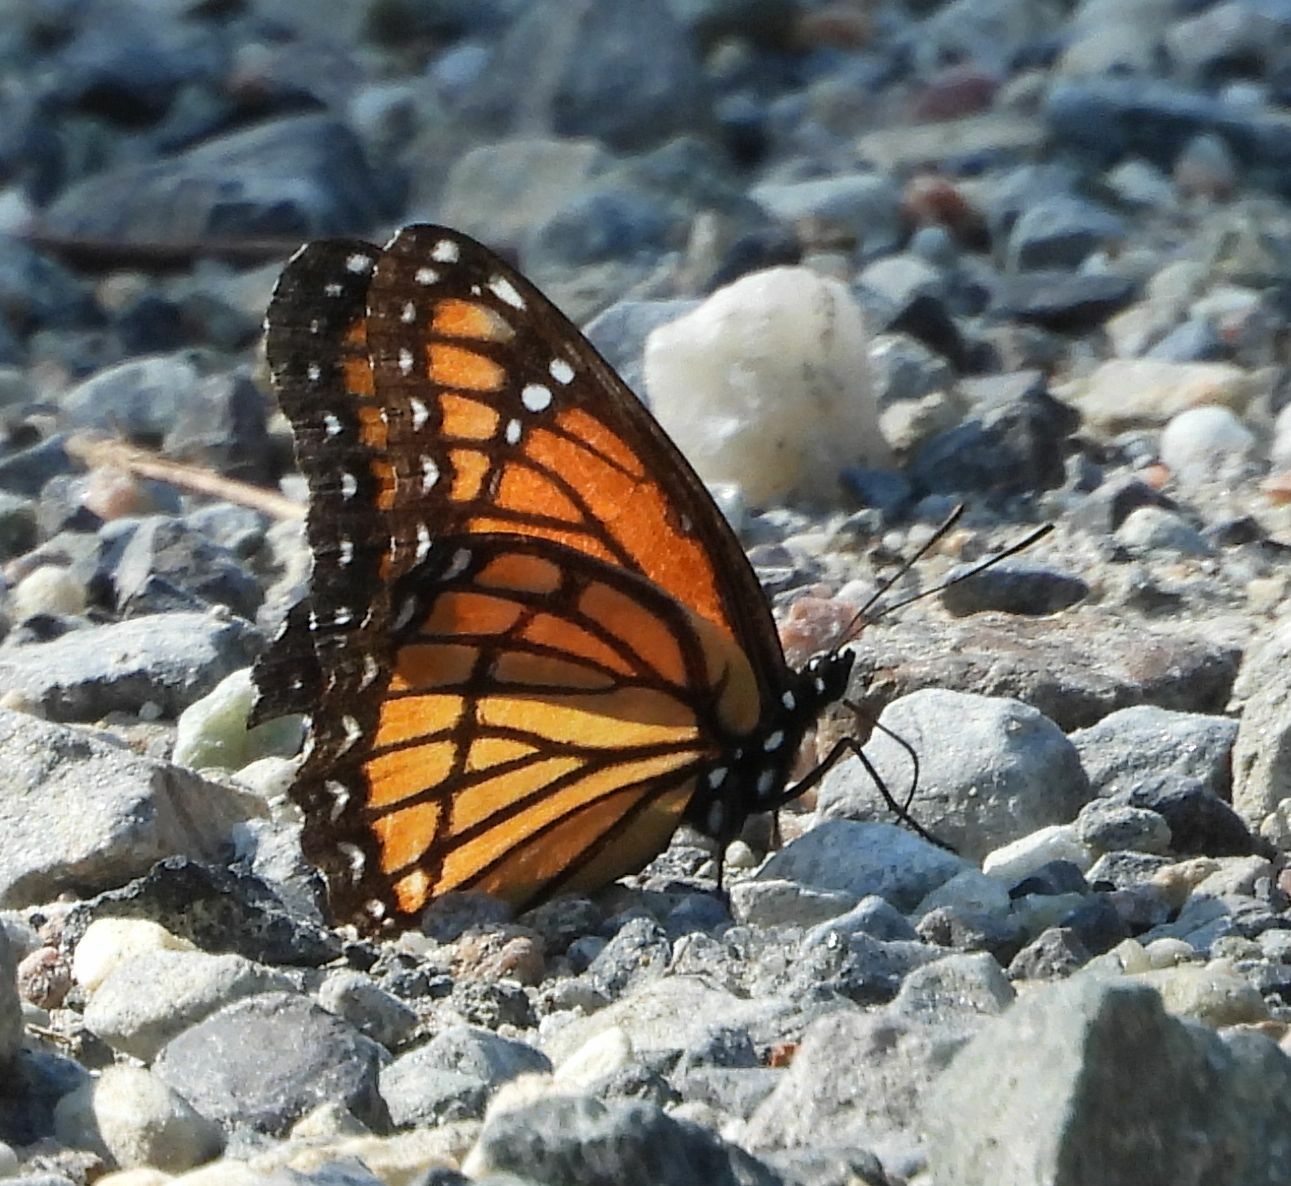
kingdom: Animalia
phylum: Arthropoda
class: Insecta
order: Lepidoptera
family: Nymphalidae
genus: Limenitis
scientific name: Limenitis archippus
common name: Viceroy
